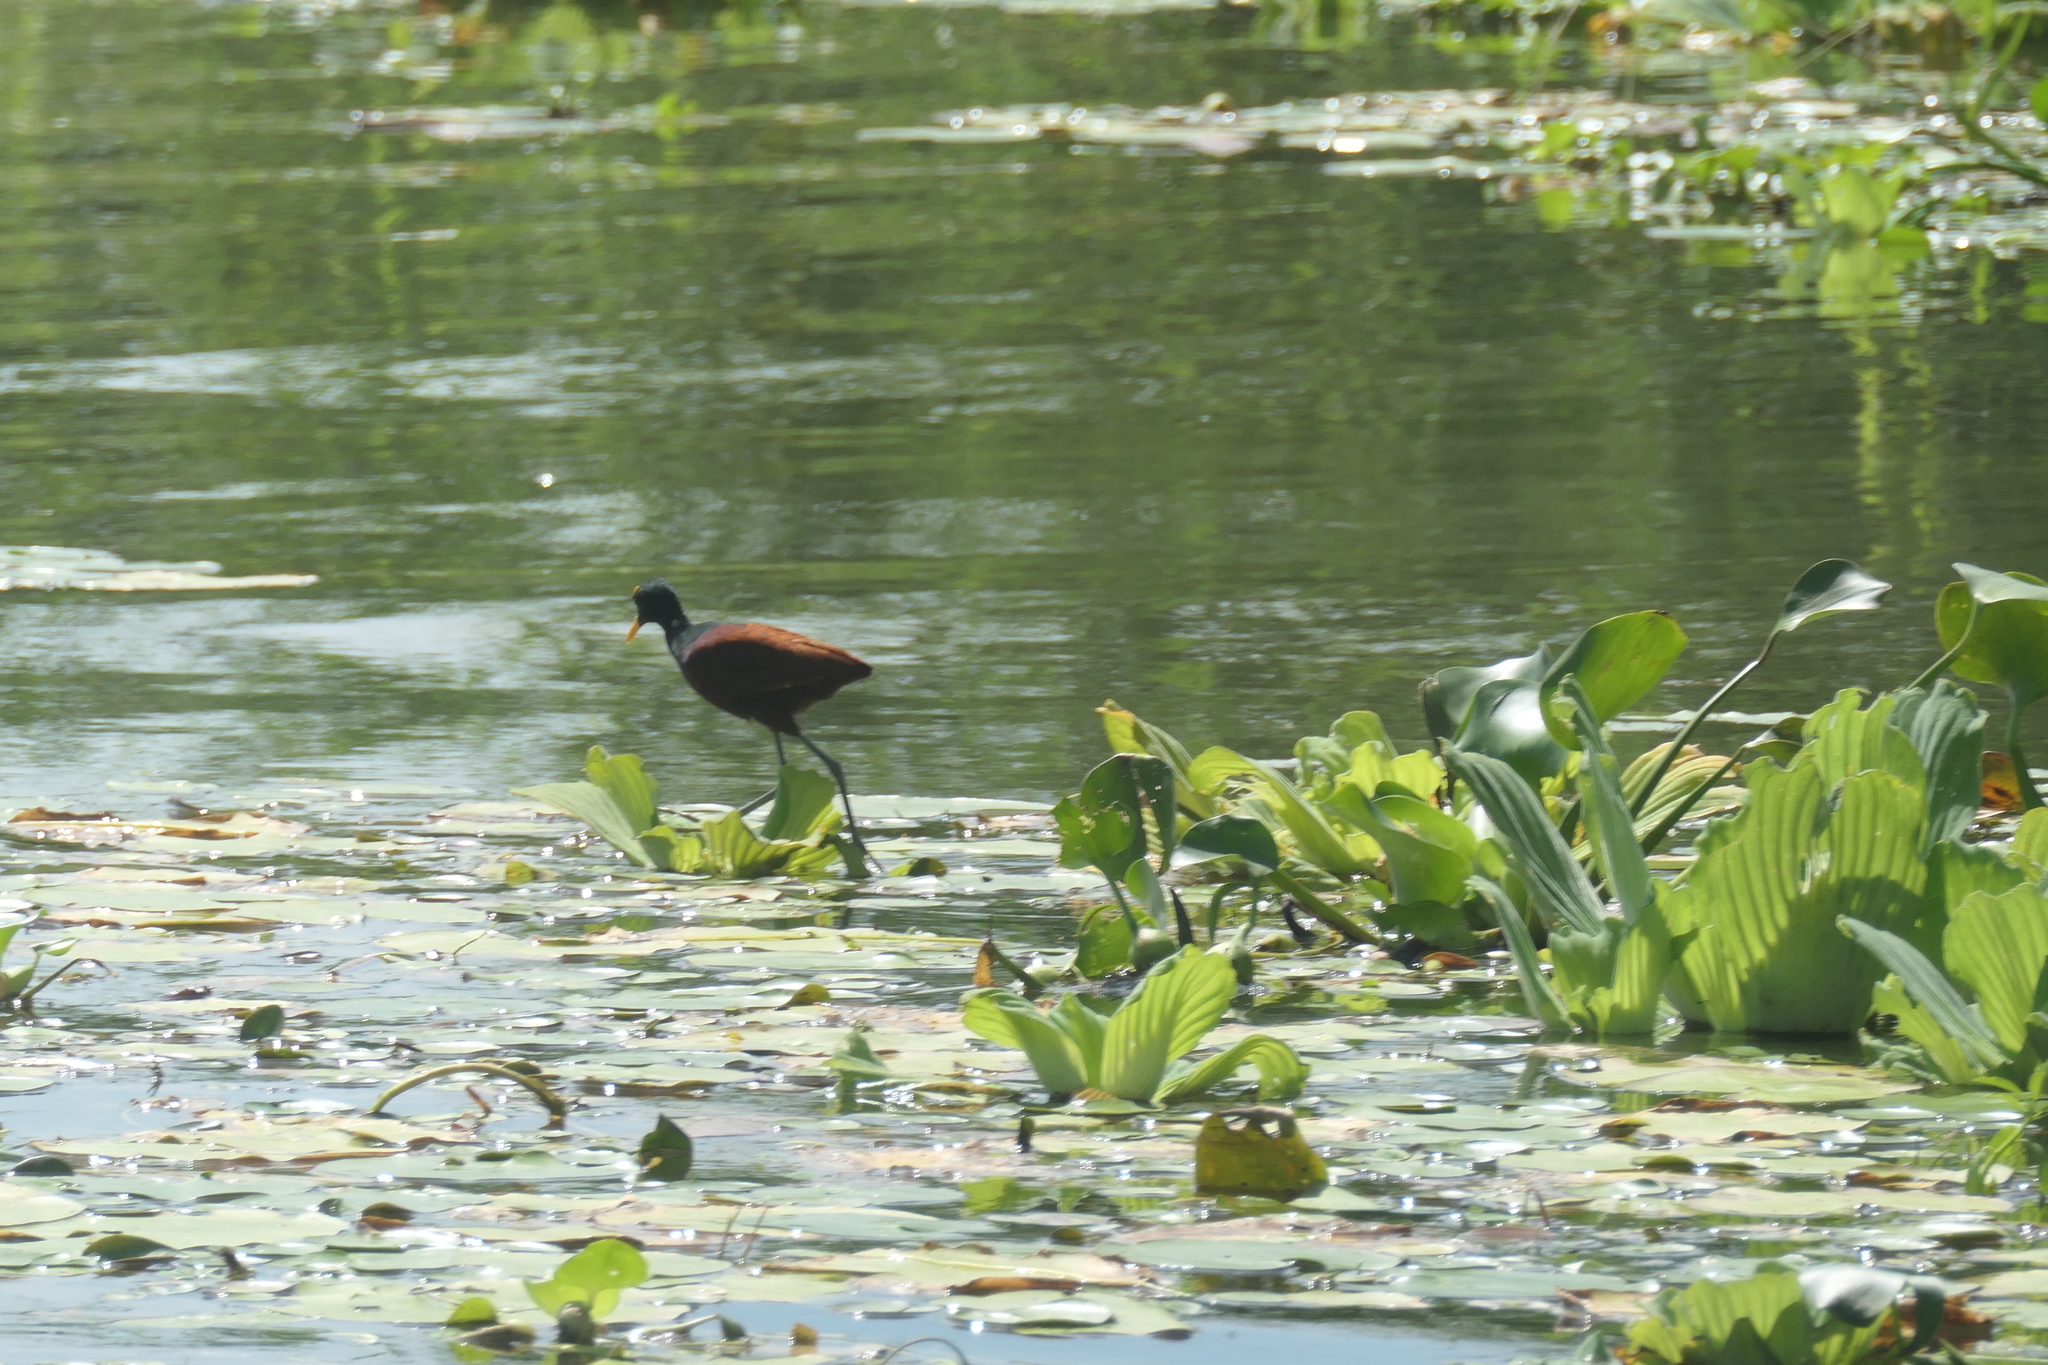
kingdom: Animalia
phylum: Chordata
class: Aves
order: Charadriiformes
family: Jacanidae
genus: Jacana
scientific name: Jacana spinosa
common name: Northern jacana
